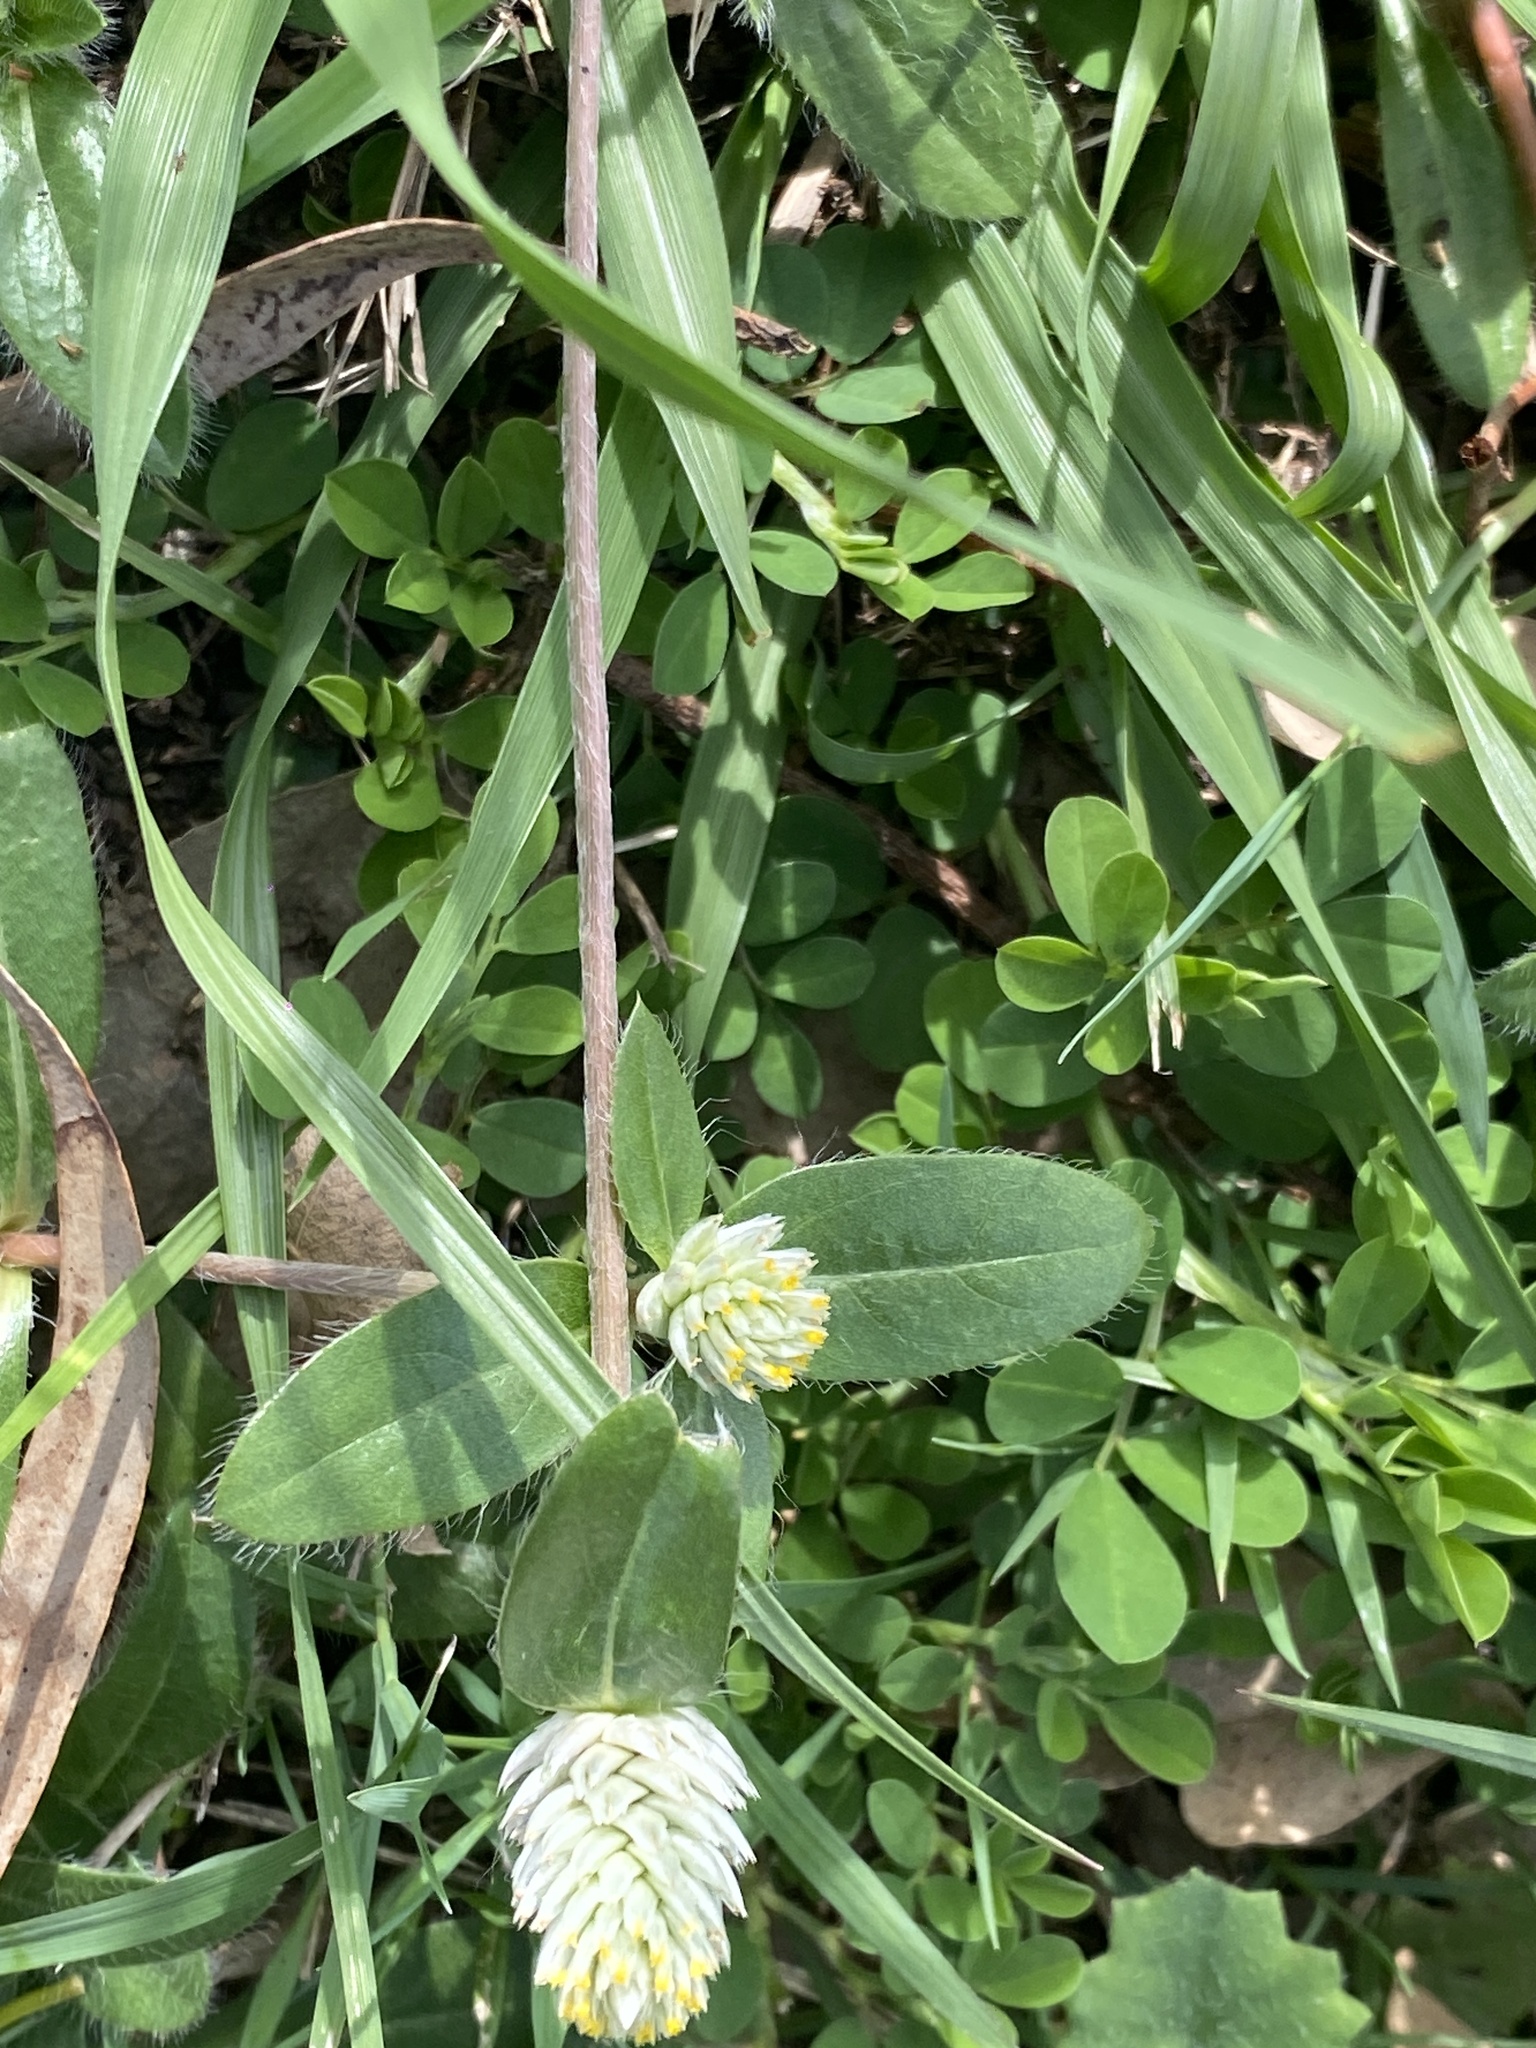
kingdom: Plantae
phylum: Tracheophyta
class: Magnoliopsida
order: Caryophyllales
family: Amaranthaceae
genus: Gomphrena
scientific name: Gomphrena celosioides
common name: Gomphrena-weed
